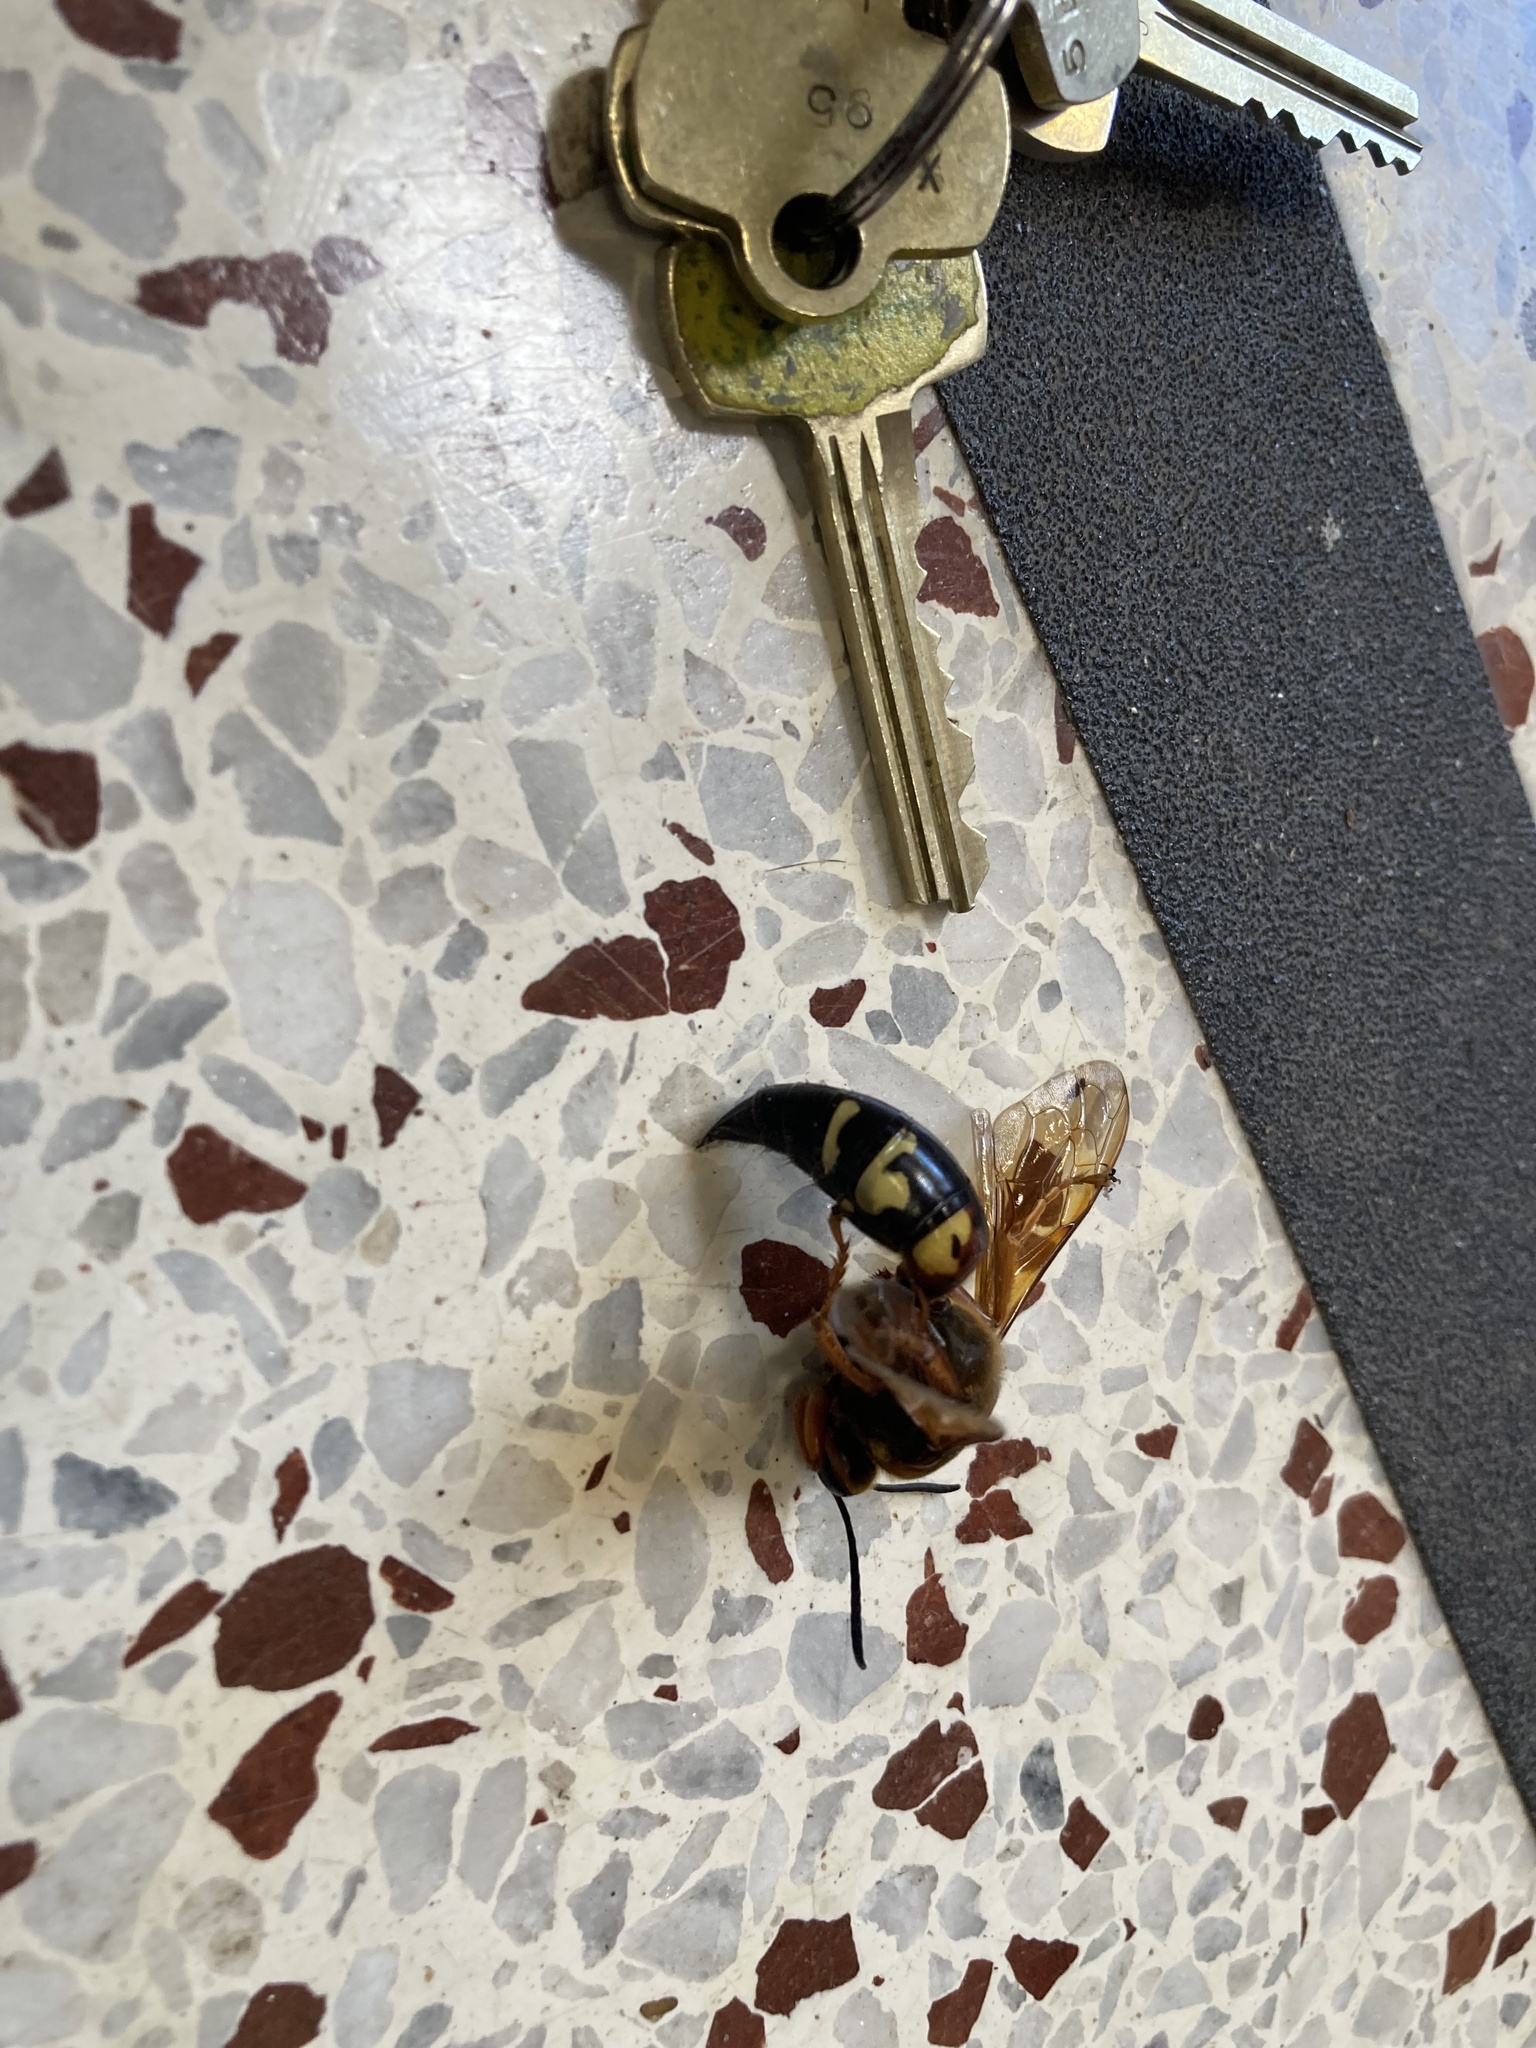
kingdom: Animalia
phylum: Arthropoda
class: Insecta
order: Hymenoptera
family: Crabronidae
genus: Sphecius
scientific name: Sphecius speciosus
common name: Cicada killer
